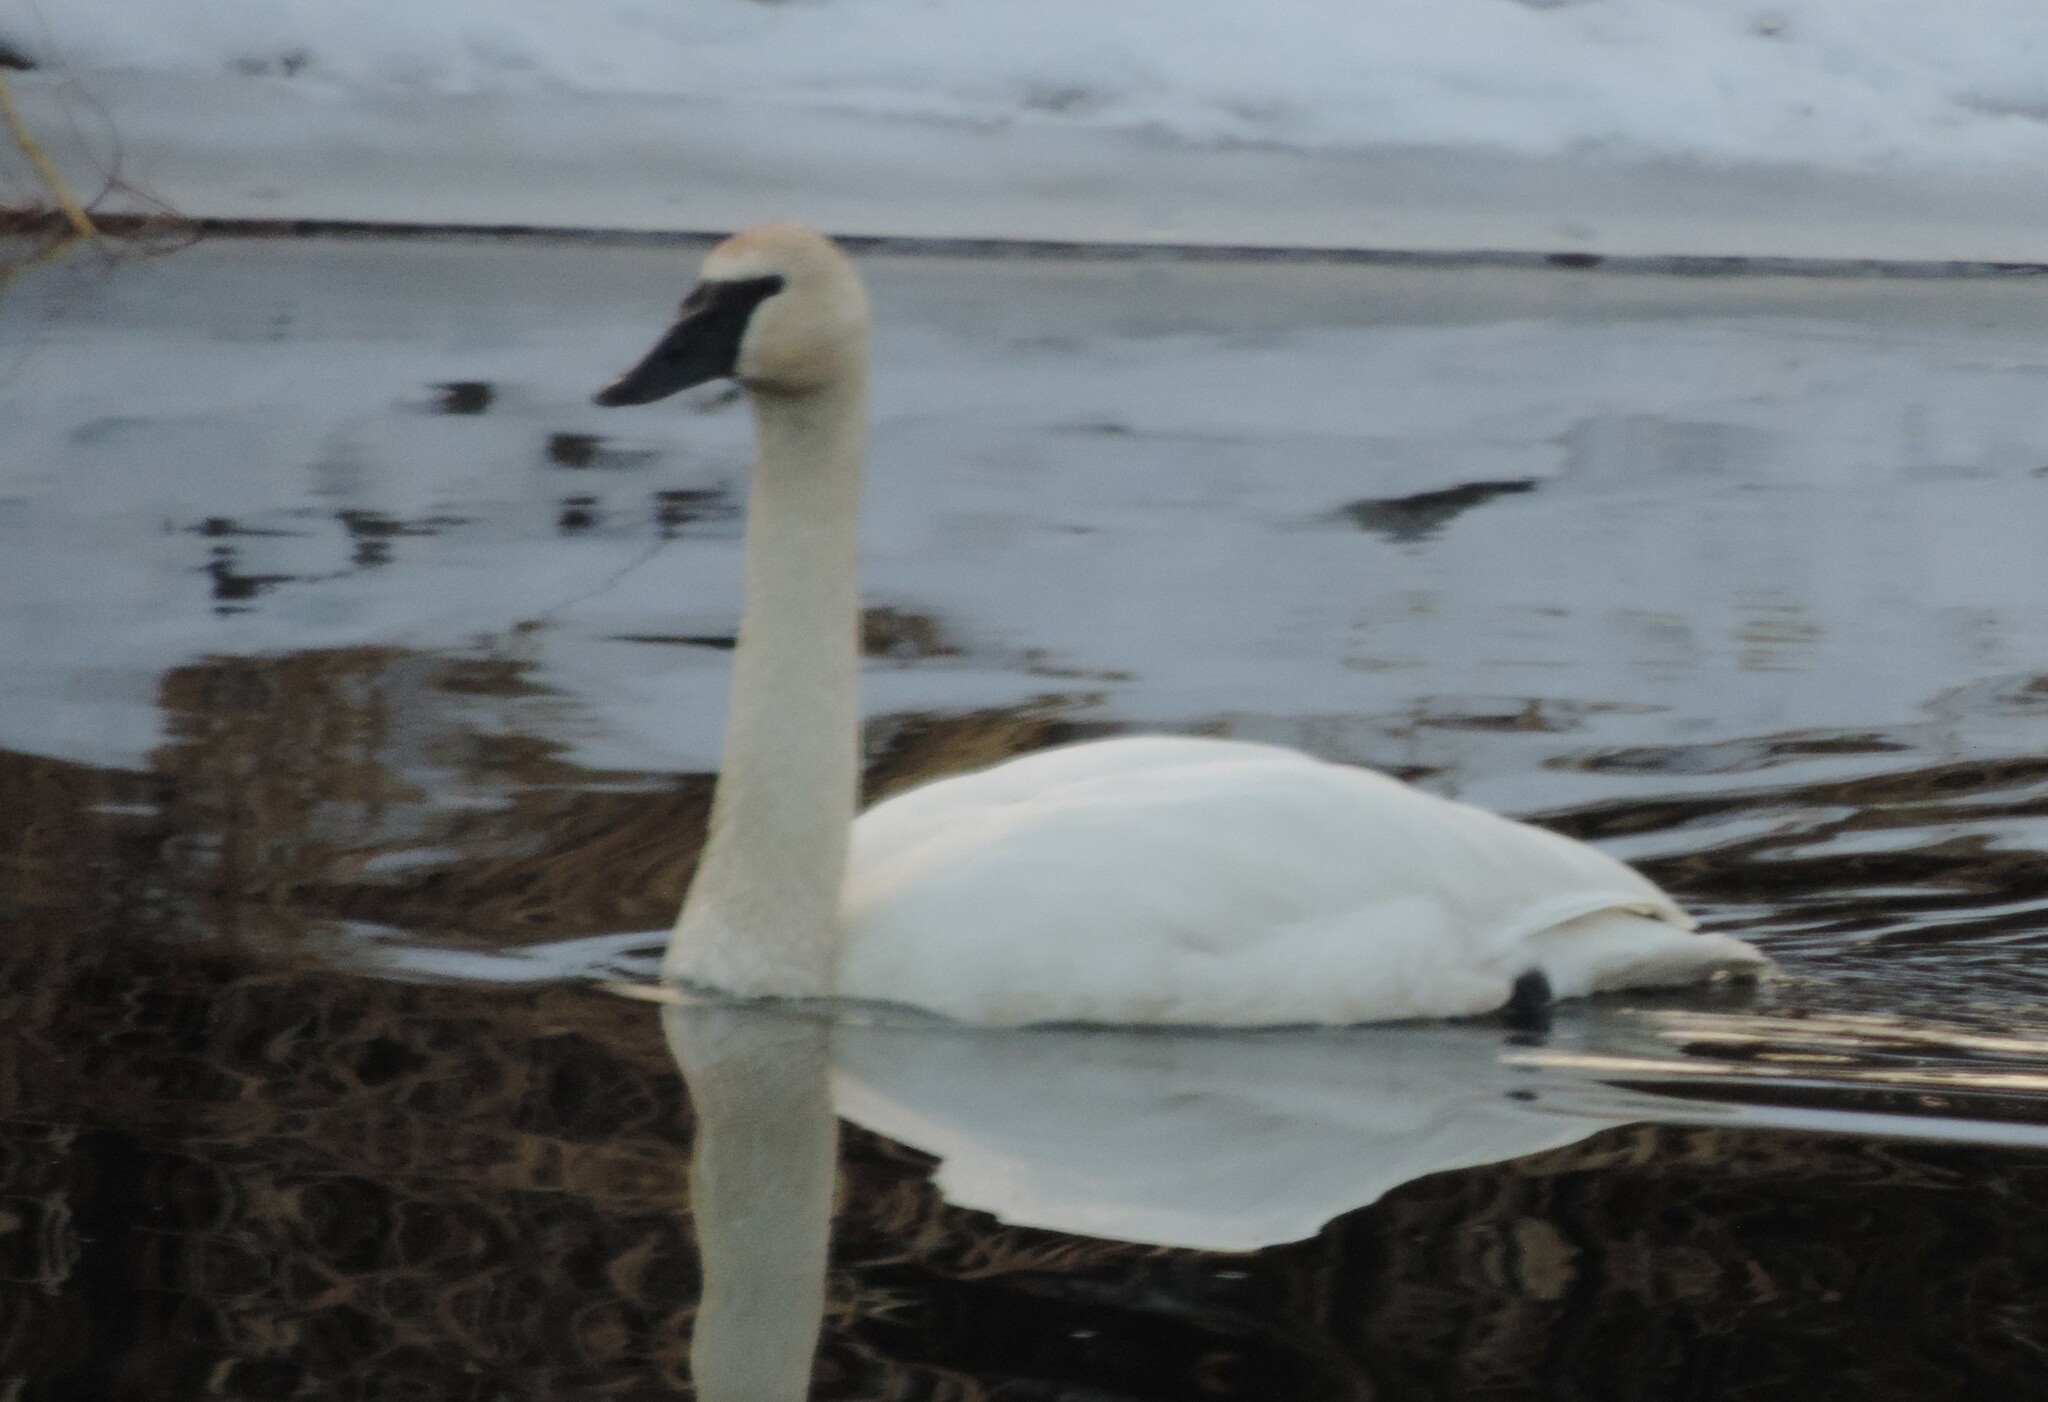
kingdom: Animalia
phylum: Chordata
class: Aves
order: Anseriformes
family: Anatidae
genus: Cygnus
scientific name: Cygnus buccinator
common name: Trumpeter swan
